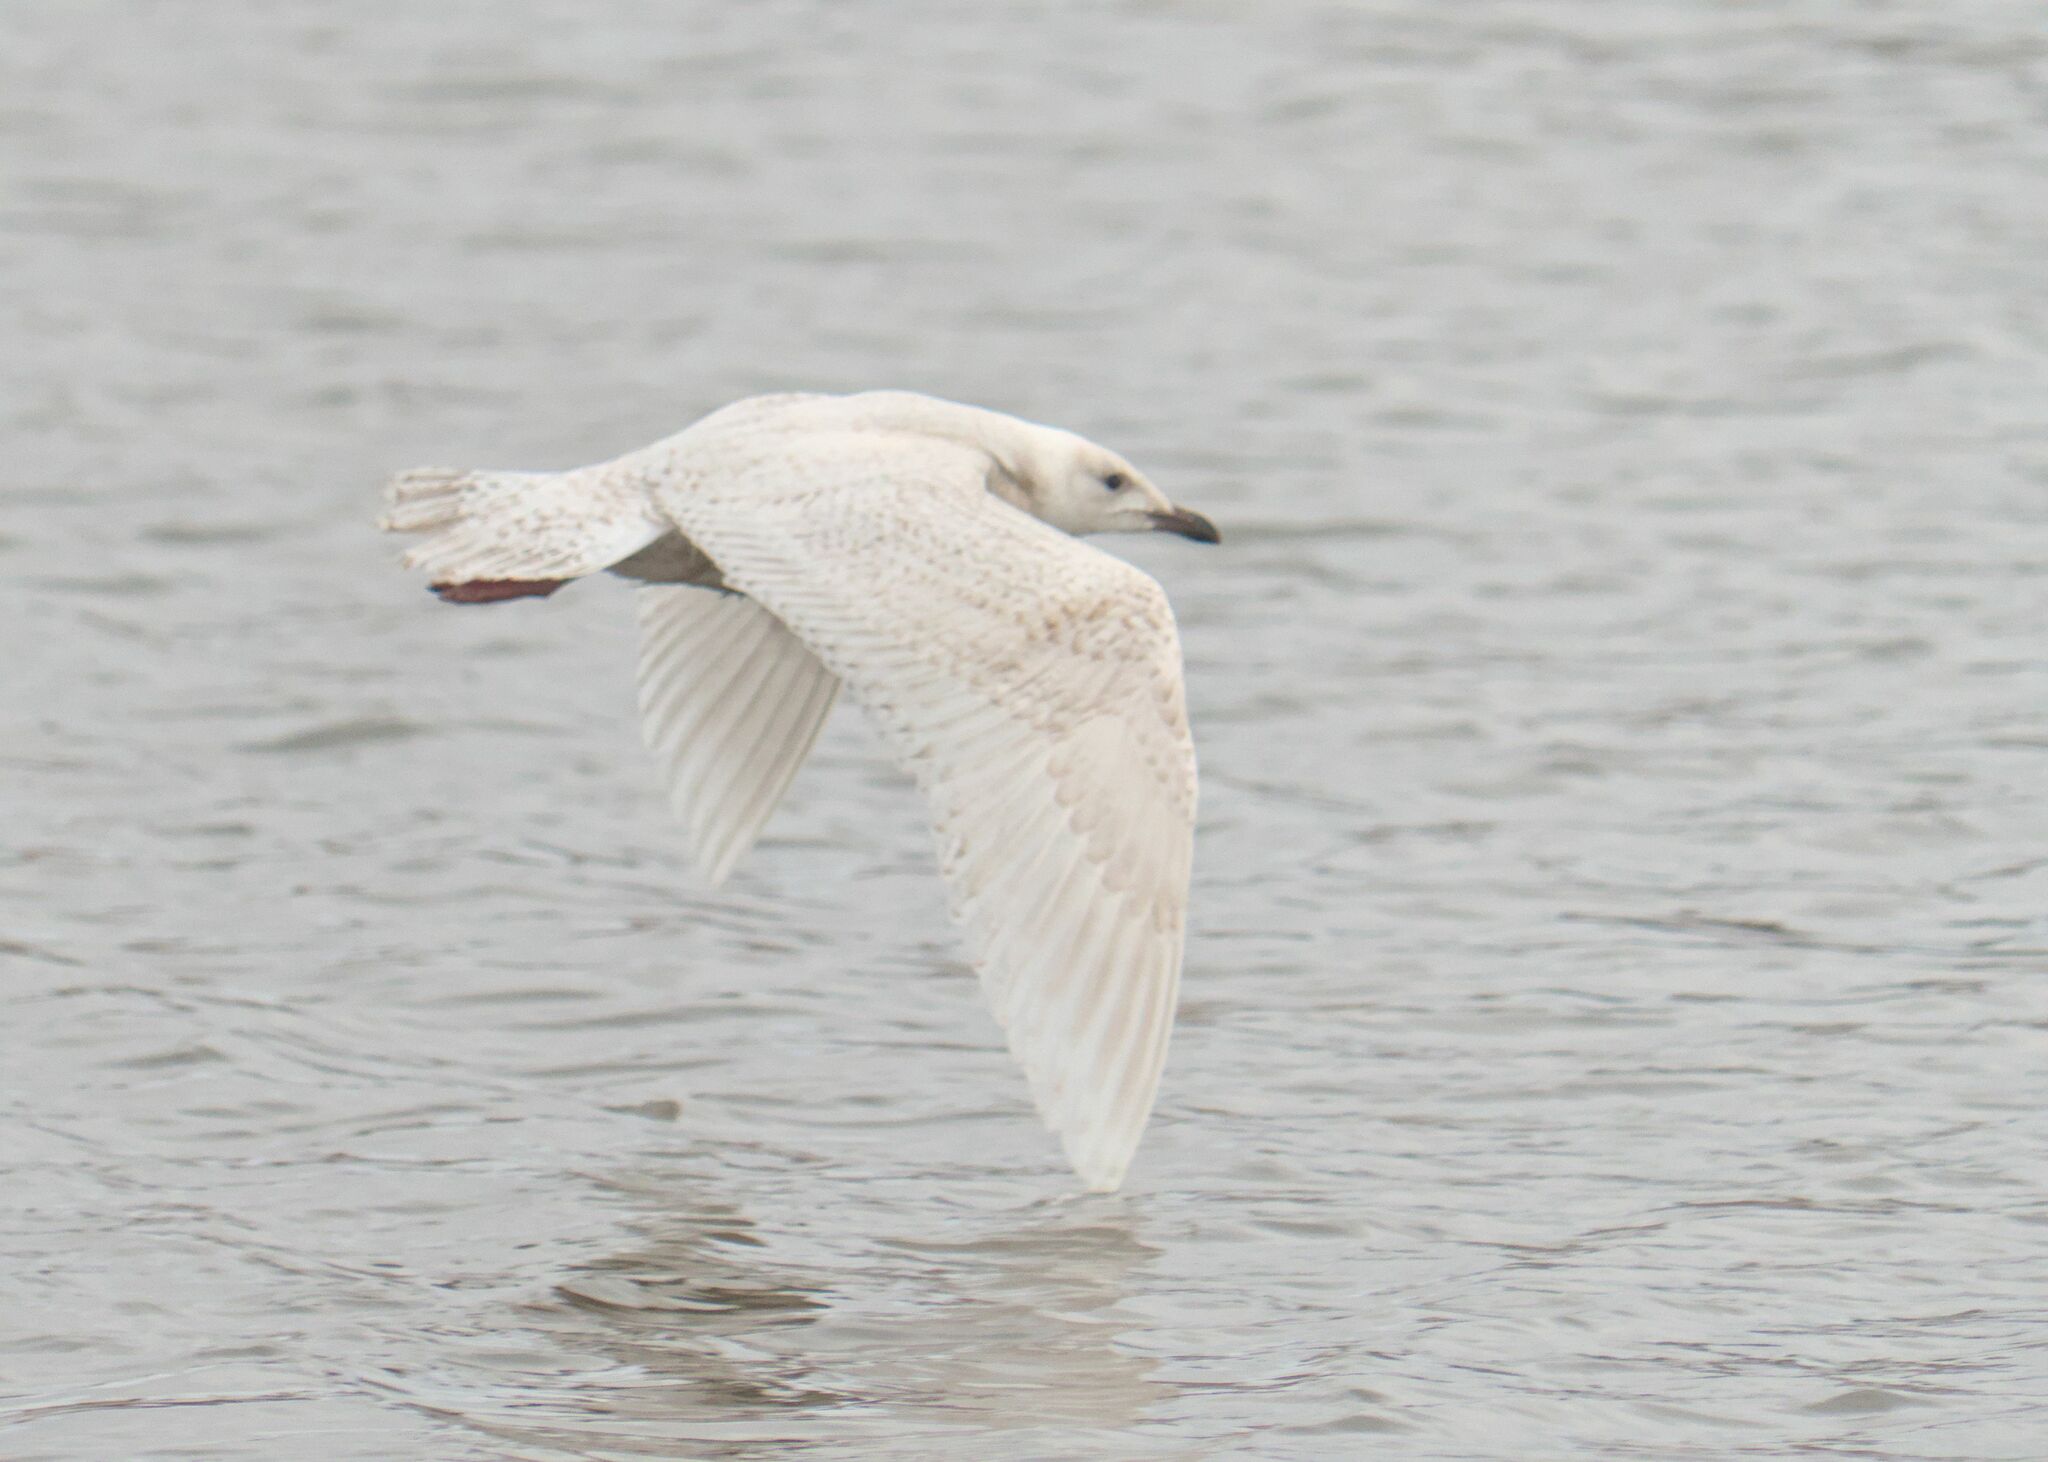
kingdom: Animalia
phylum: Chordata
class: Aves
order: Charadriiformes
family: Laridae
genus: Larus
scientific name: Larus glaucoides
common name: Iceland gull
